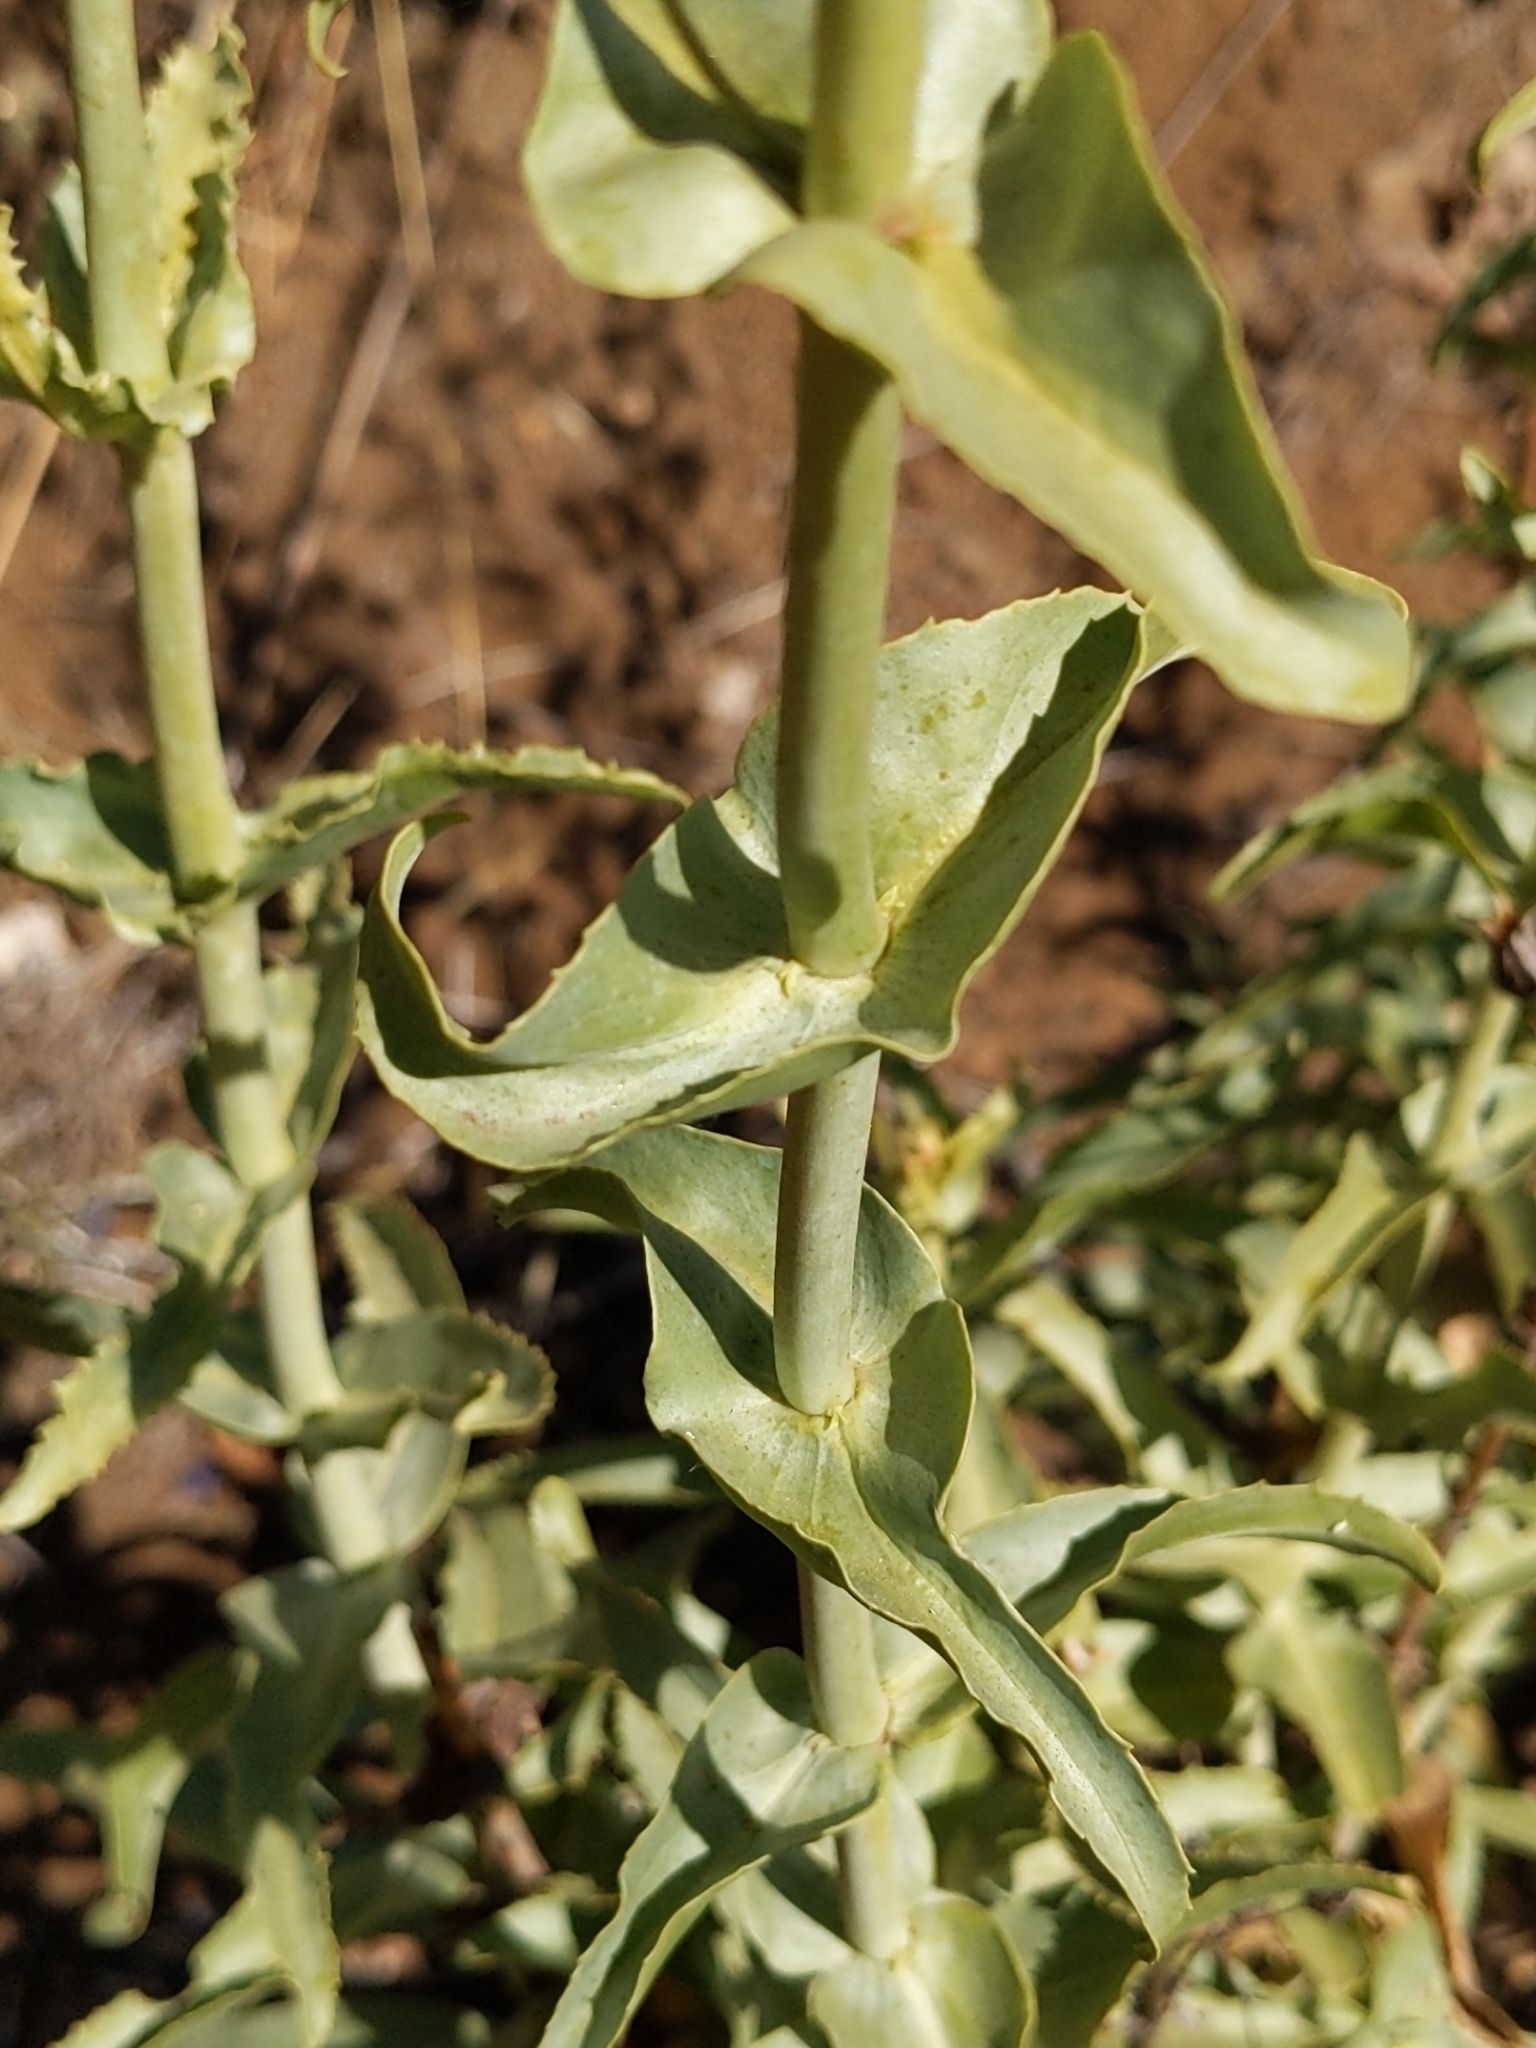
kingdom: Plantae
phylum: Tracheophyta
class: Magnoliopsida
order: Lamiales
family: Plantaginaceae
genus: Penstemon
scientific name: Penstemon spectabilis
